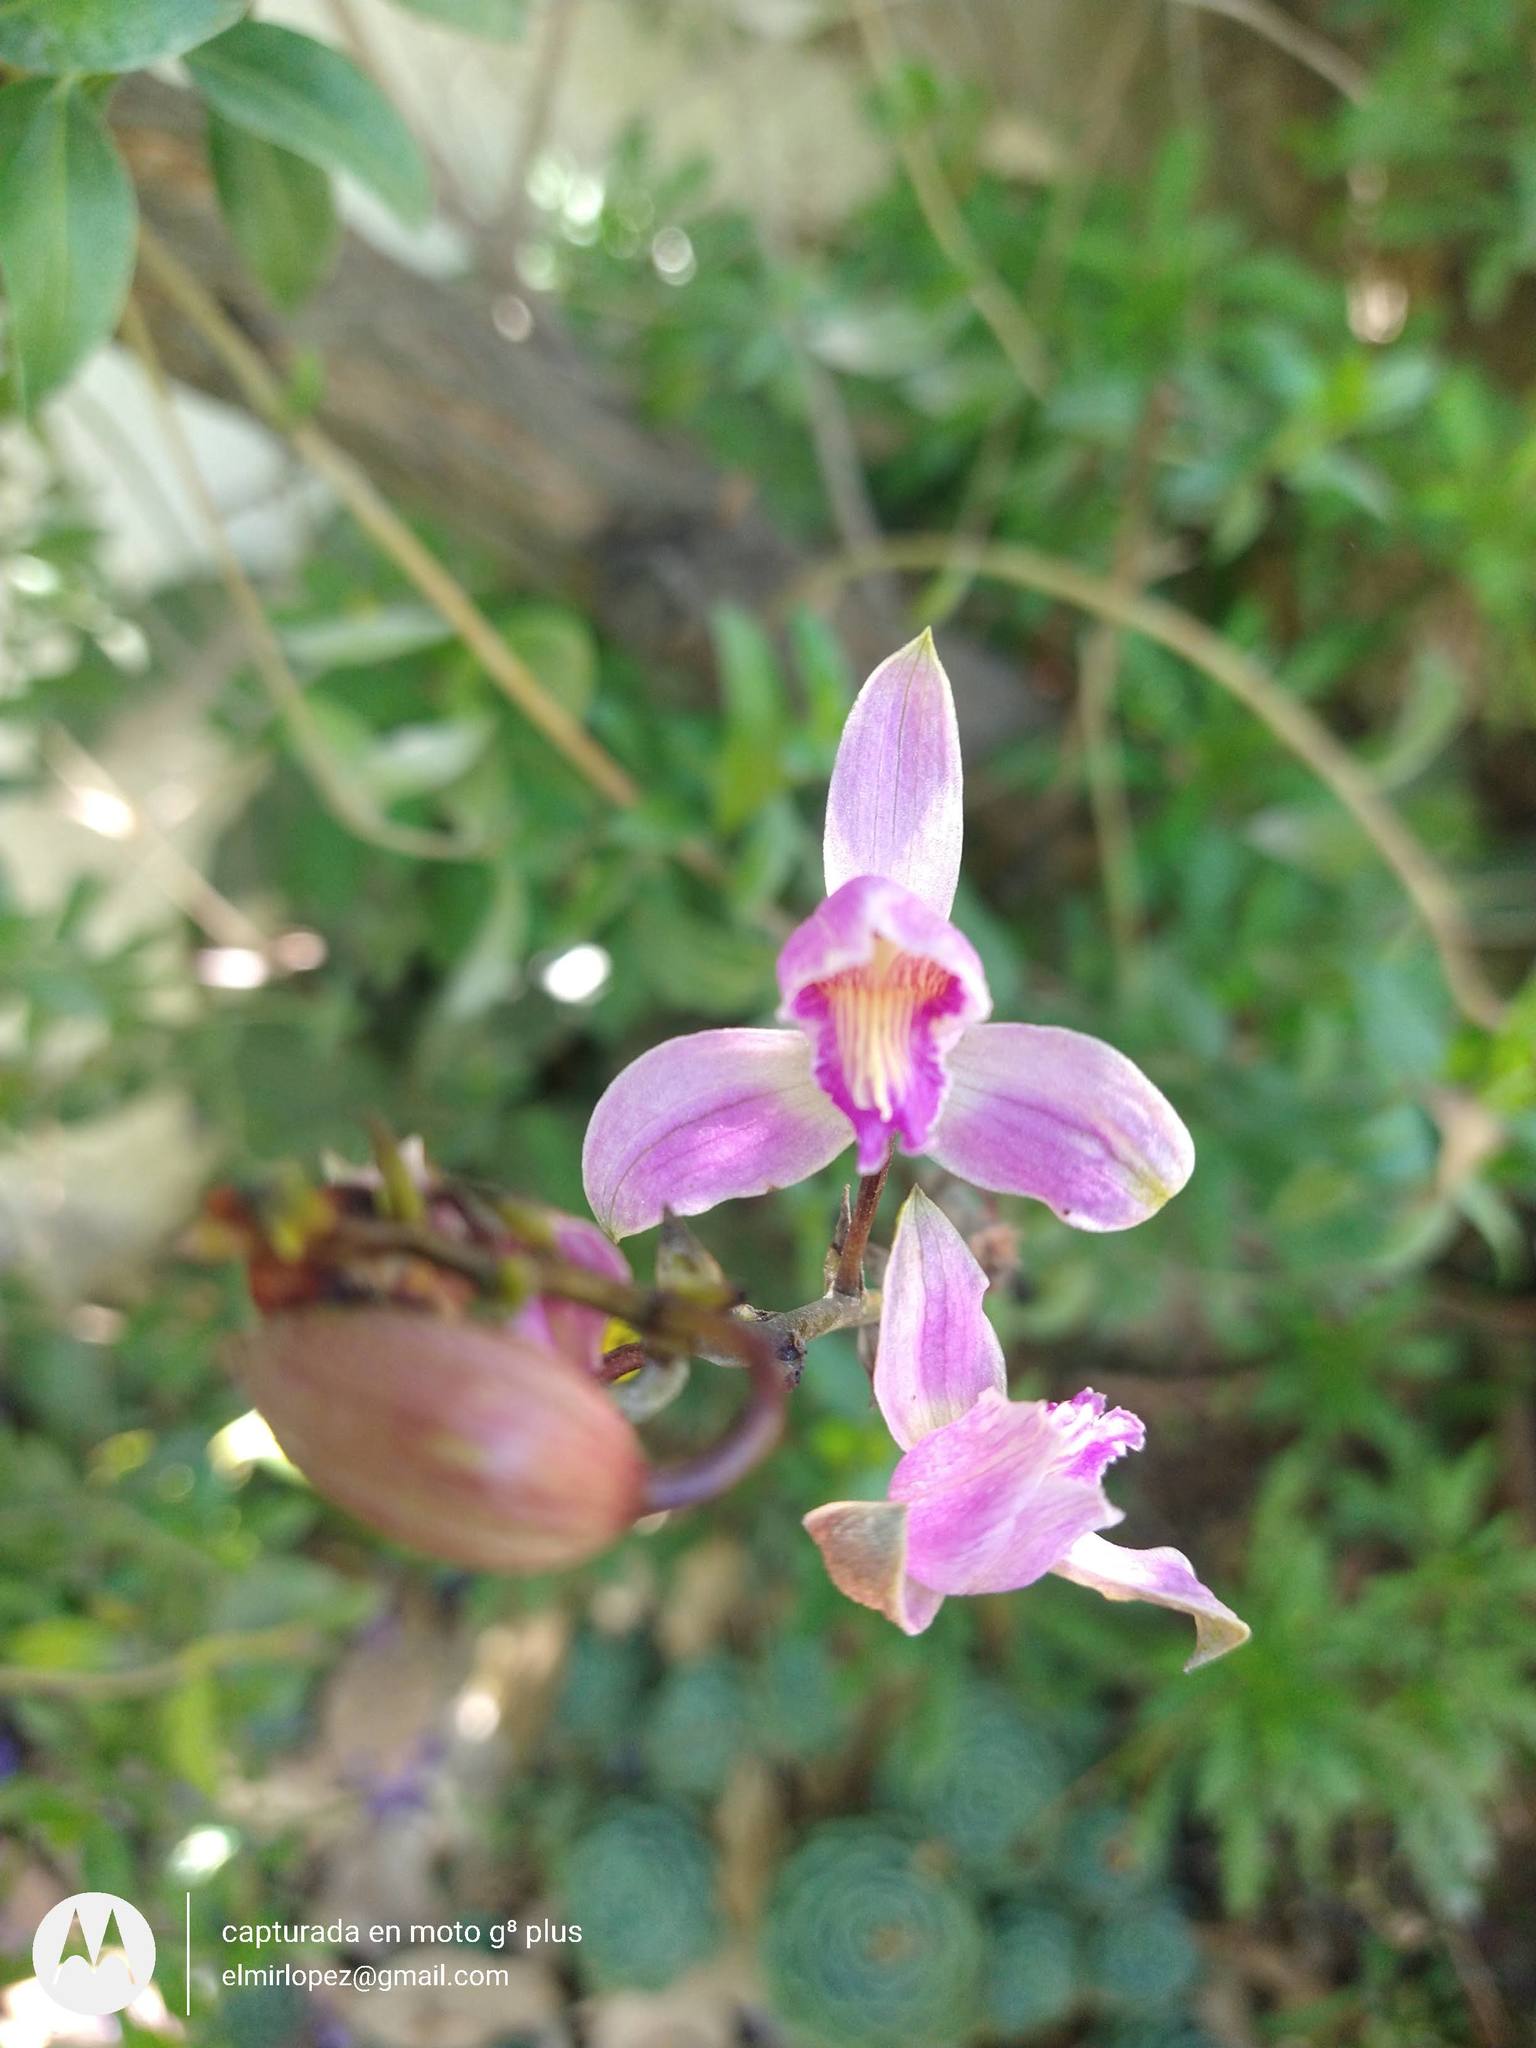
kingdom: Plantae
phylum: Tracheophyta
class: Liliopsida
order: Asparagales
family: Orchidaceae
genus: Bletia
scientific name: Bletia purpurea
